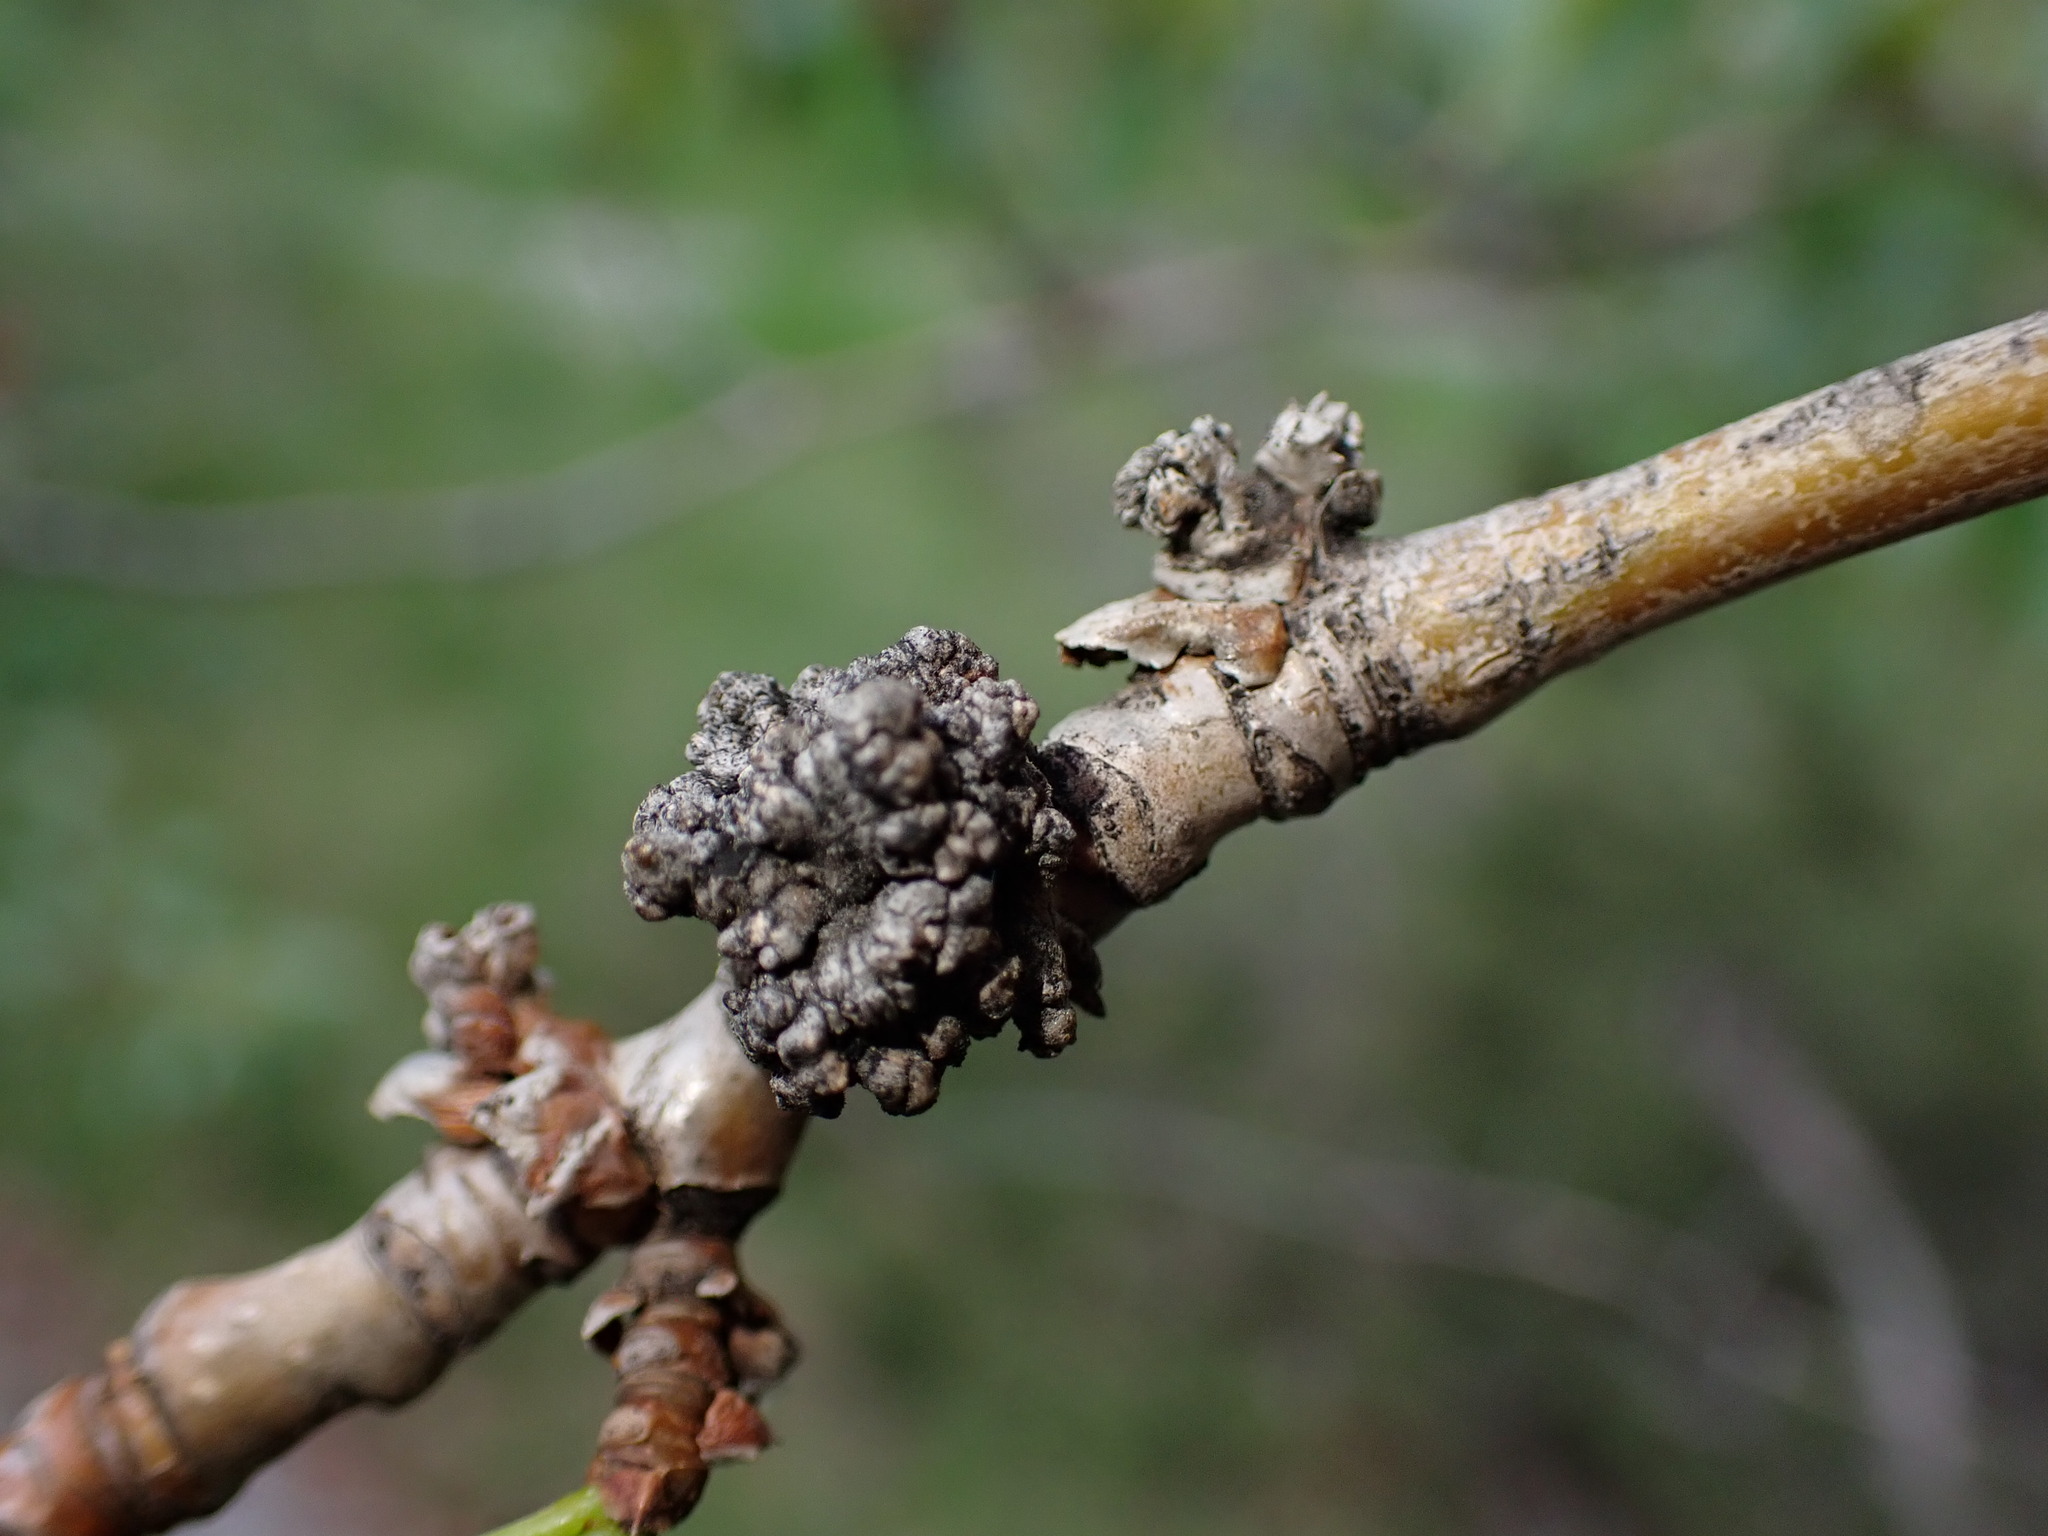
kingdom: Animalia
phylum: Arthropoda
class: Arachnida
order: Trombidiformes
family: Eriophyidae
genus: Aceria
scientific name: Aceria
